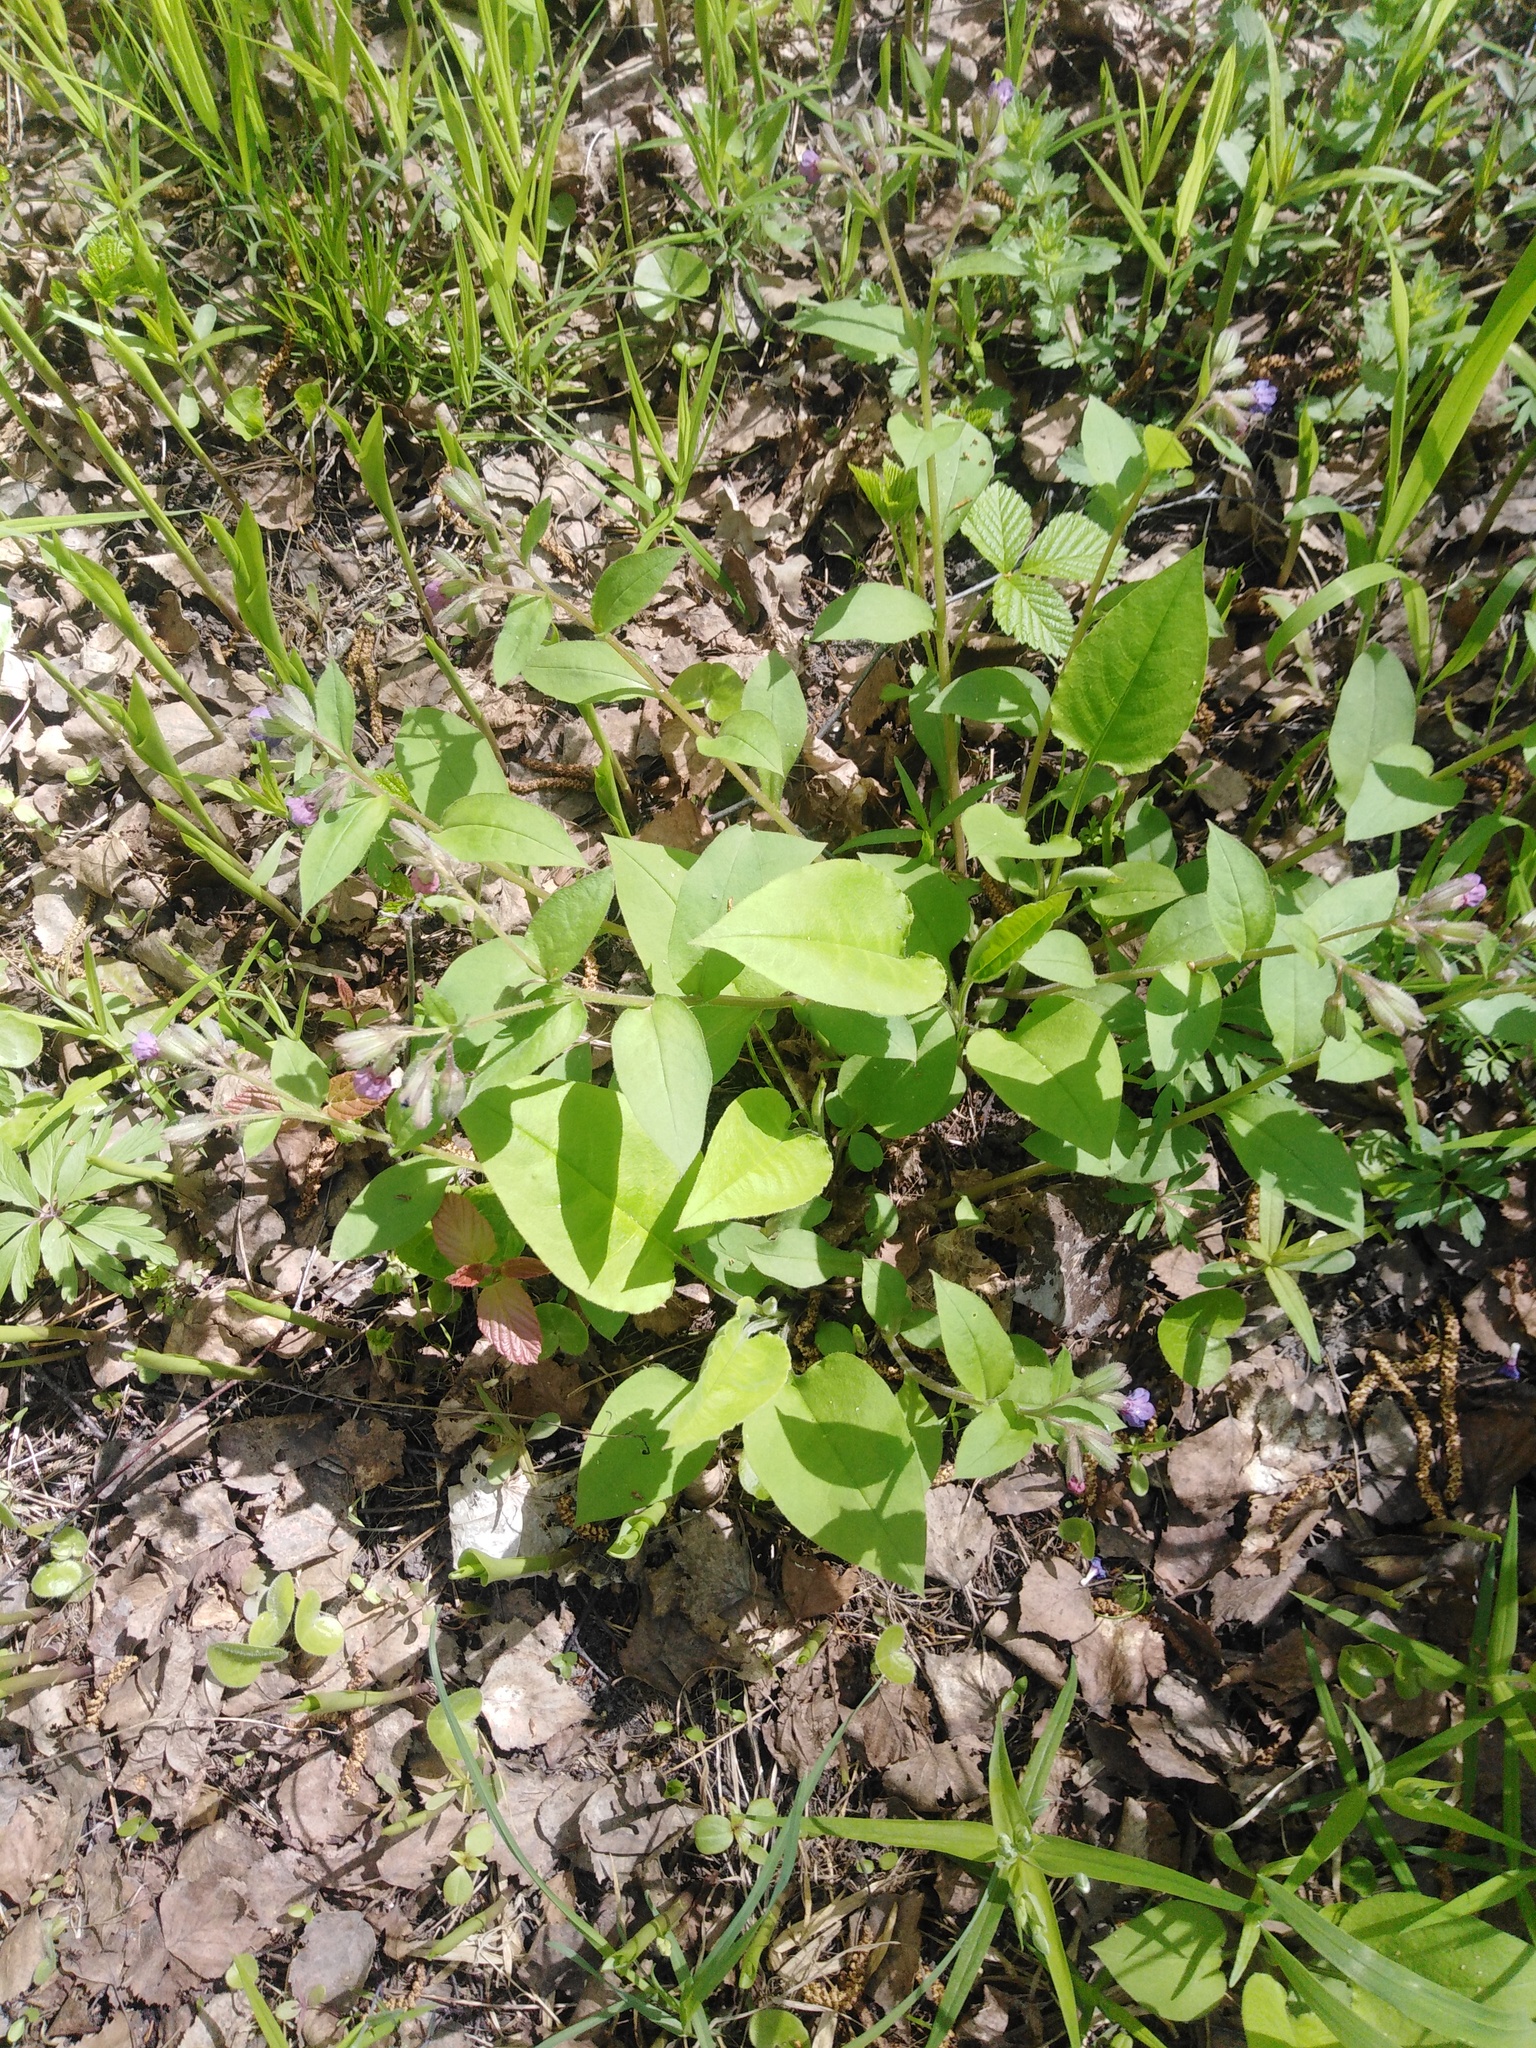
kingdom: Plantae
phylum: Tracheophyta
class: Magnoliopsida
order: Boraginales
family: Boraginaceae
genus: Pulmonaria
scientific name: Pulmonaria obscura
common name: Suffolk lungwort
